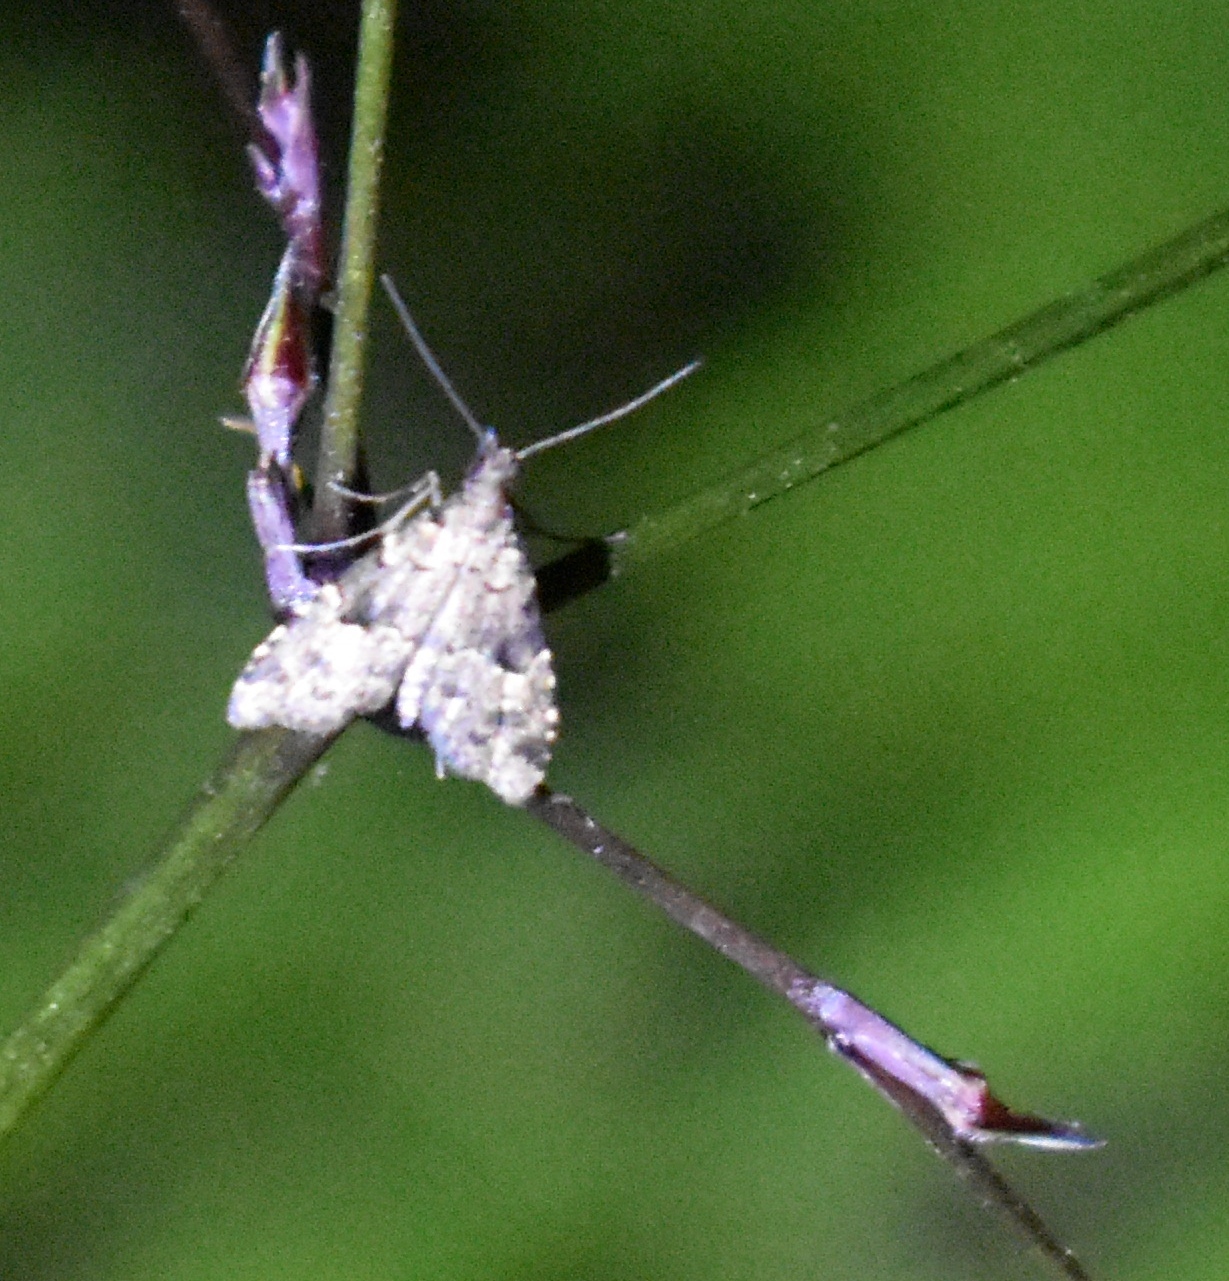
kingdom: Animalia
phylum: Arthropoda
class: Insecta
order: Lepidoptera
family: Erebidae
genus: Pseudoschrankia
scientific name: Pseudoschrankia brevipalpis
